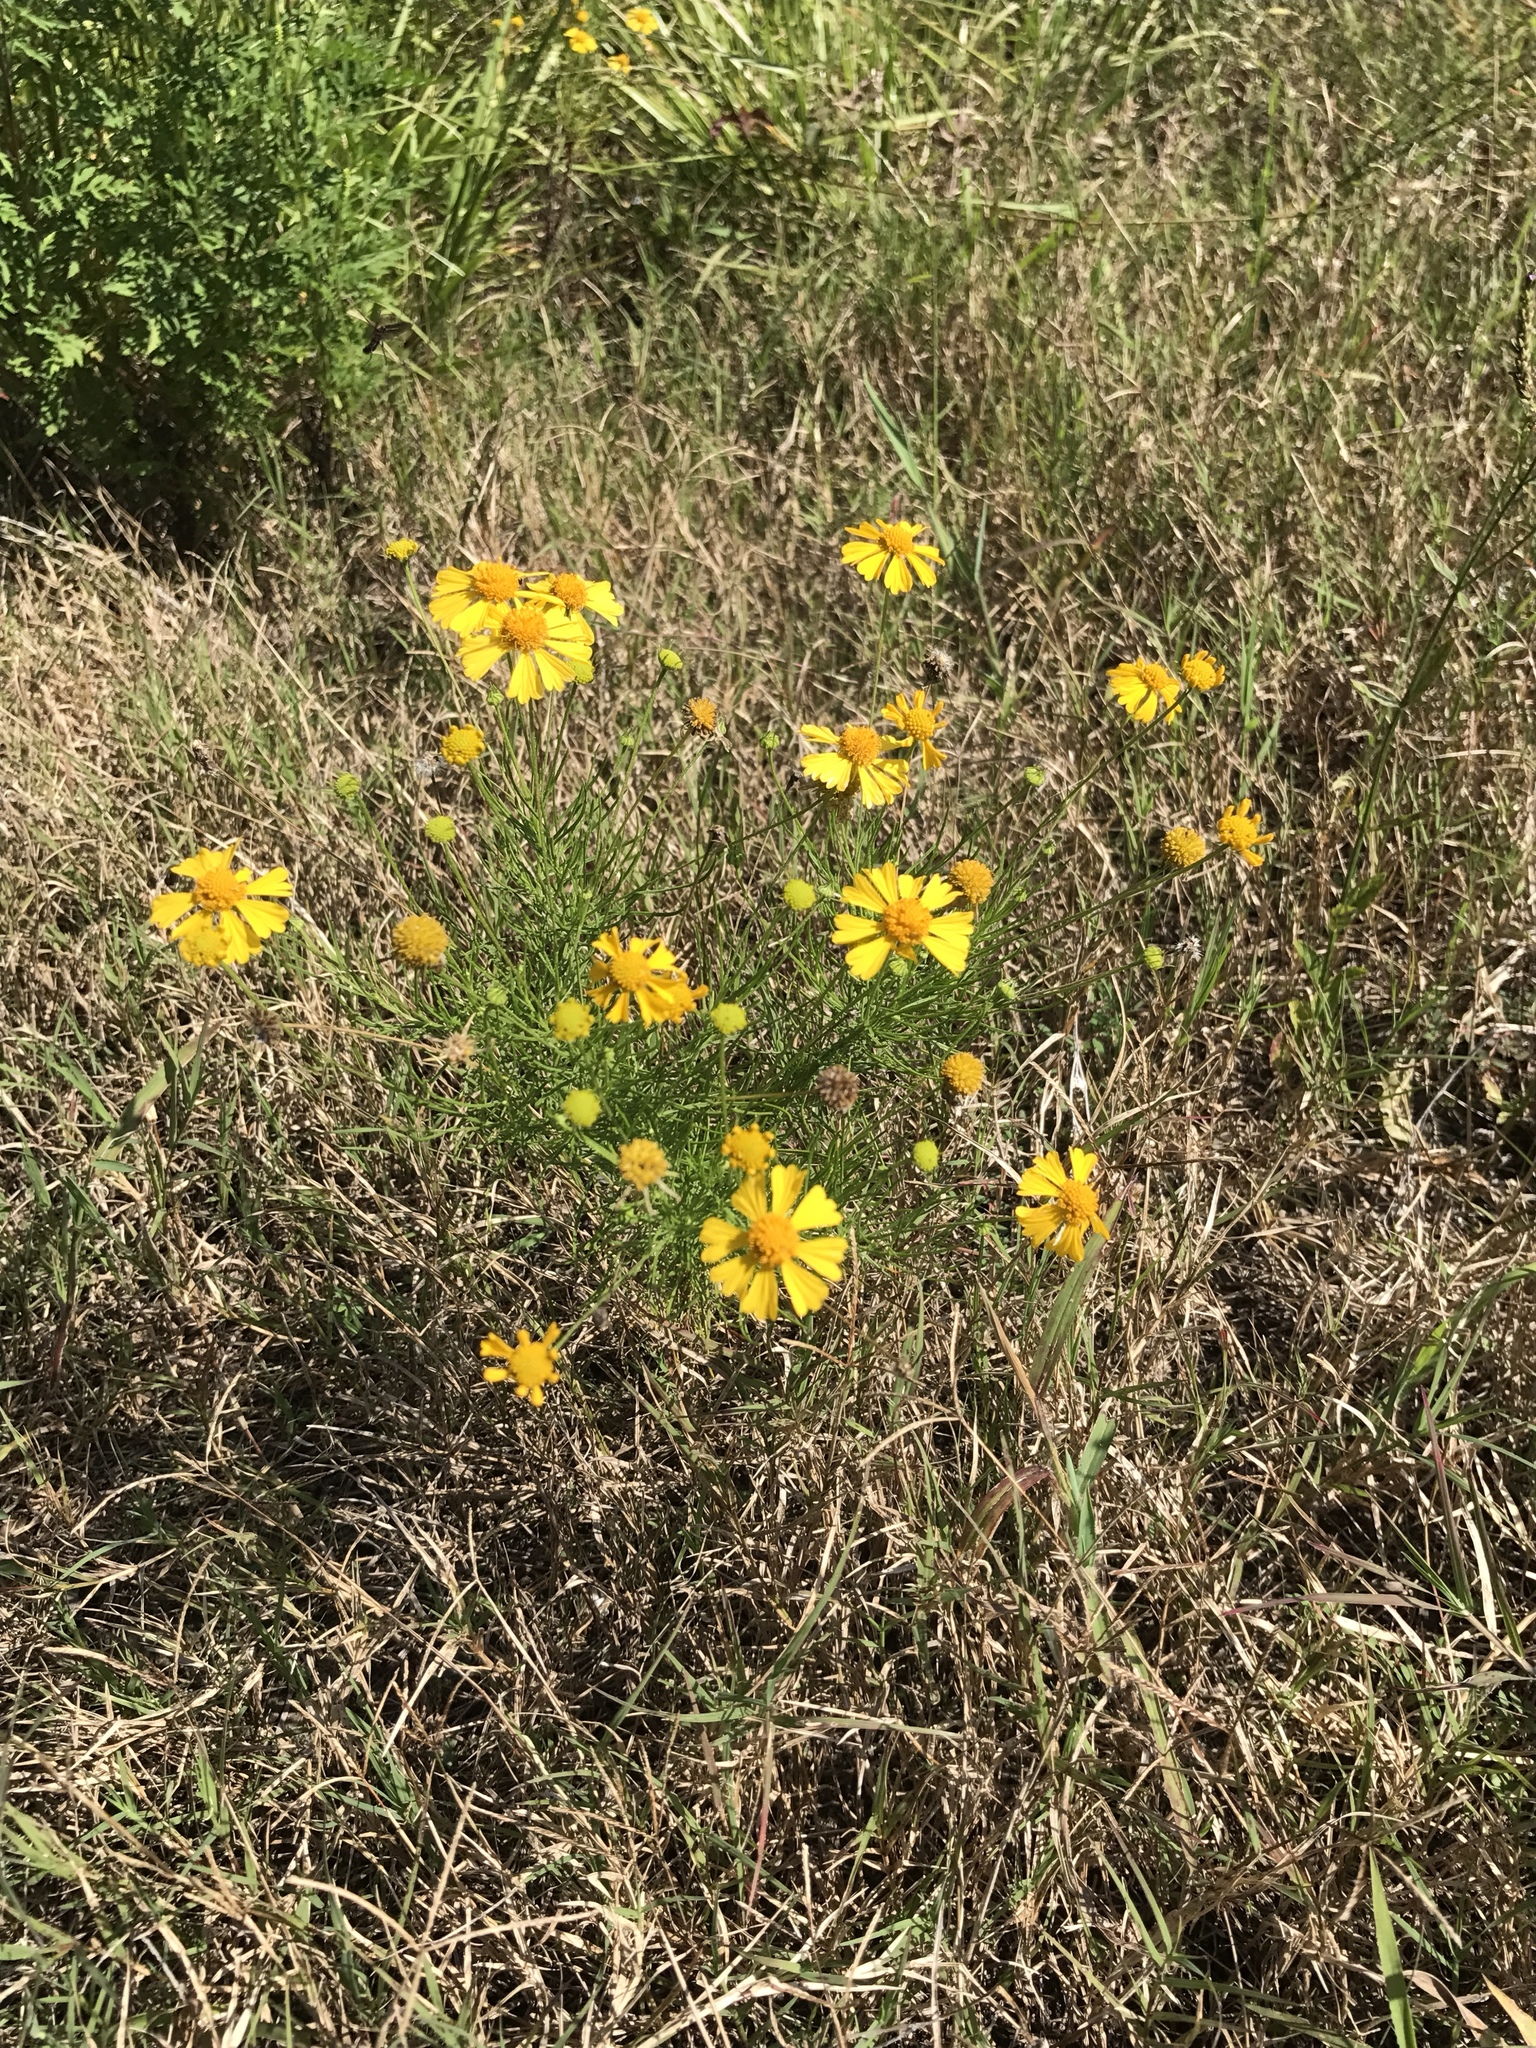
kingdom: Plantae
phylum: Tracheophyta
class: Magnoliopsida
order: Asterales
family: Asteraceae
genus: Helenium
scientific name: Helenium amarum
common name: Bitter sneezeweed
